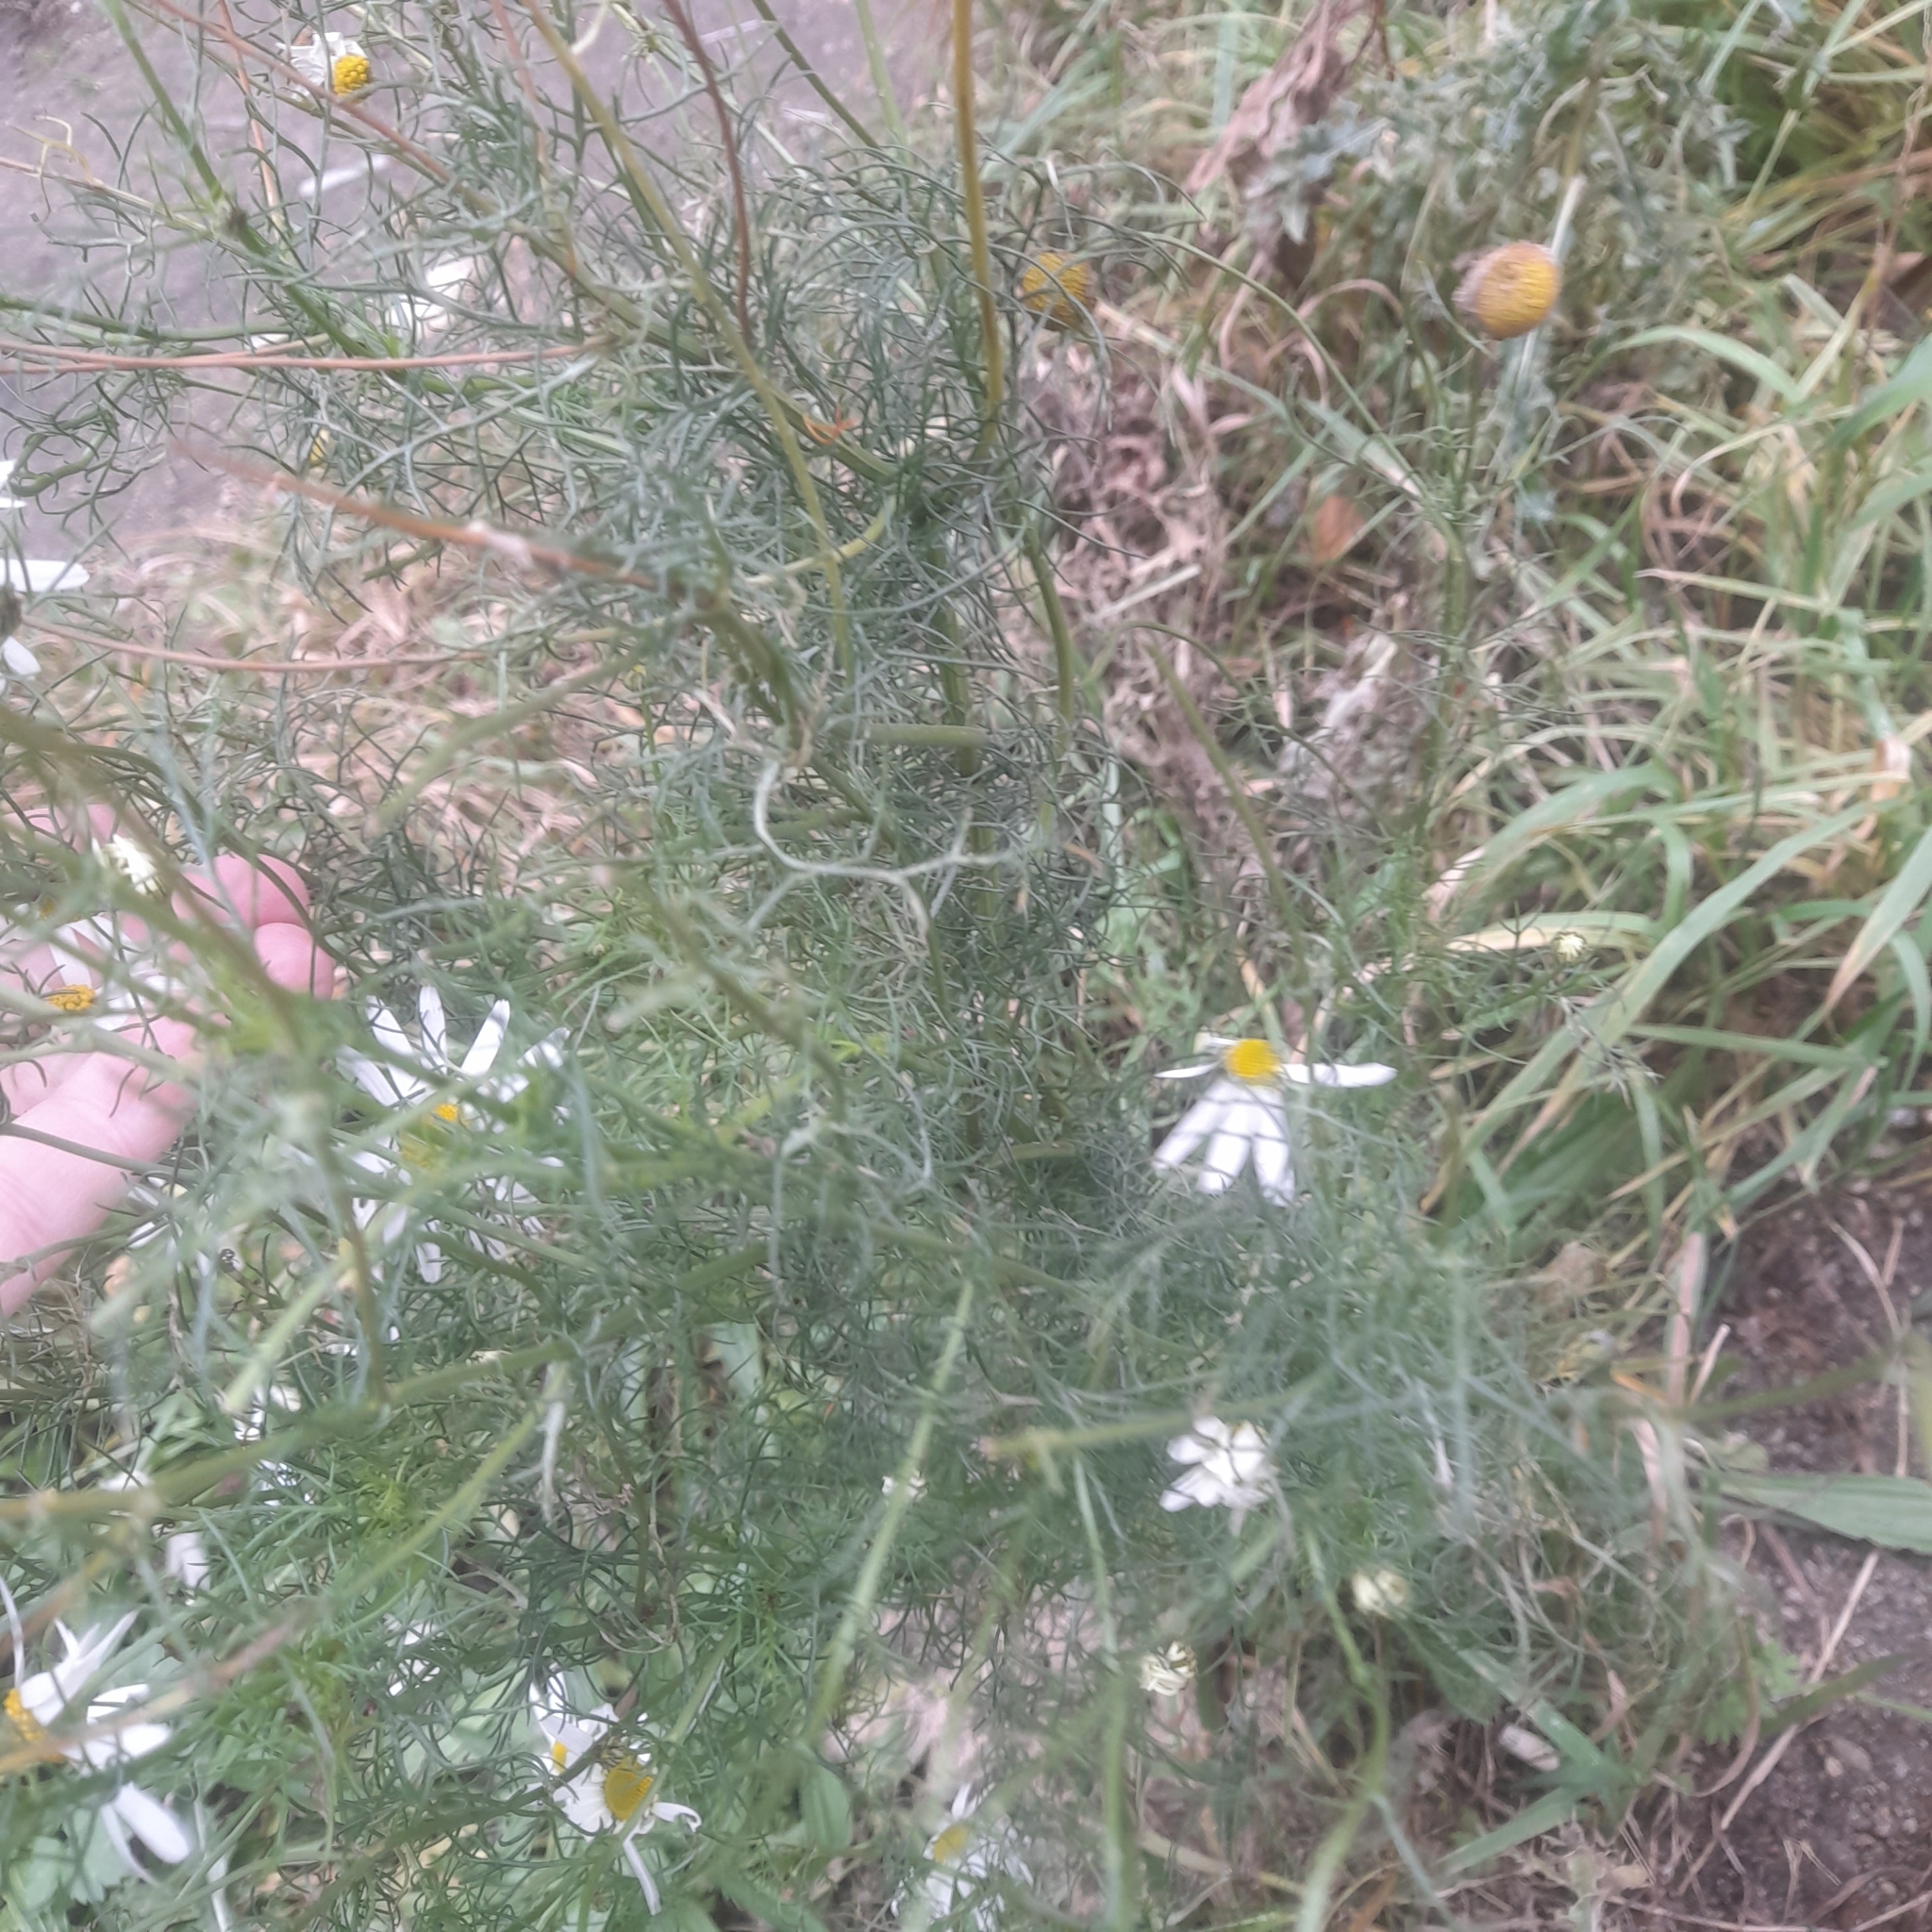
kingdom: Plantae
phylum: Tracheophyta
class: Magnoliopsida
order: Asterales
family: Asteraceae
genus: Tripleurospermum
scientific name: Tripleurospermum inodorum
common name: Scentless mayweed
